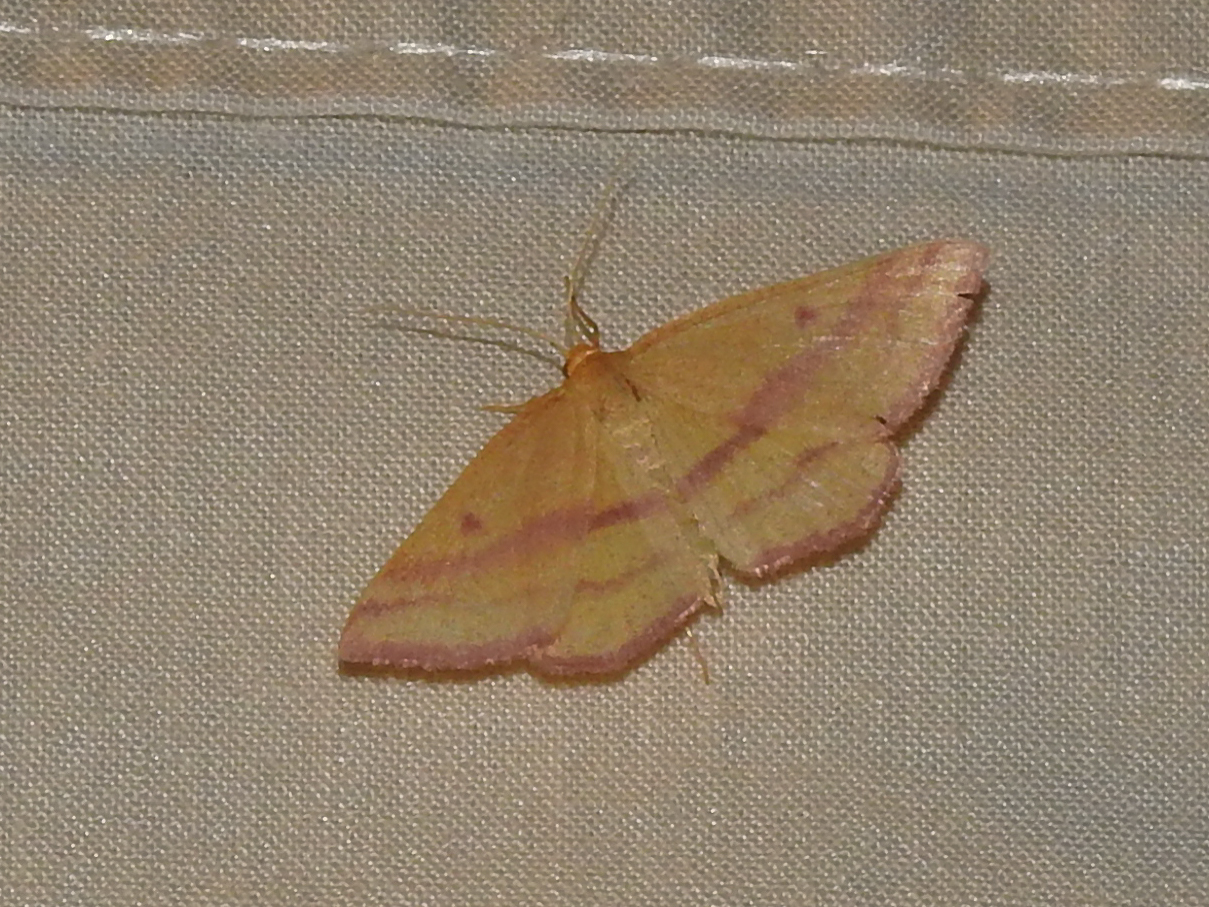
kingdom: Animalia
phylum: Arthropoda
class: Insecta
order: Lepidoptera
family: Geometridae
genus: Haematopis
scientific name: Haematopis grataria
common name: Chickweed geometer
